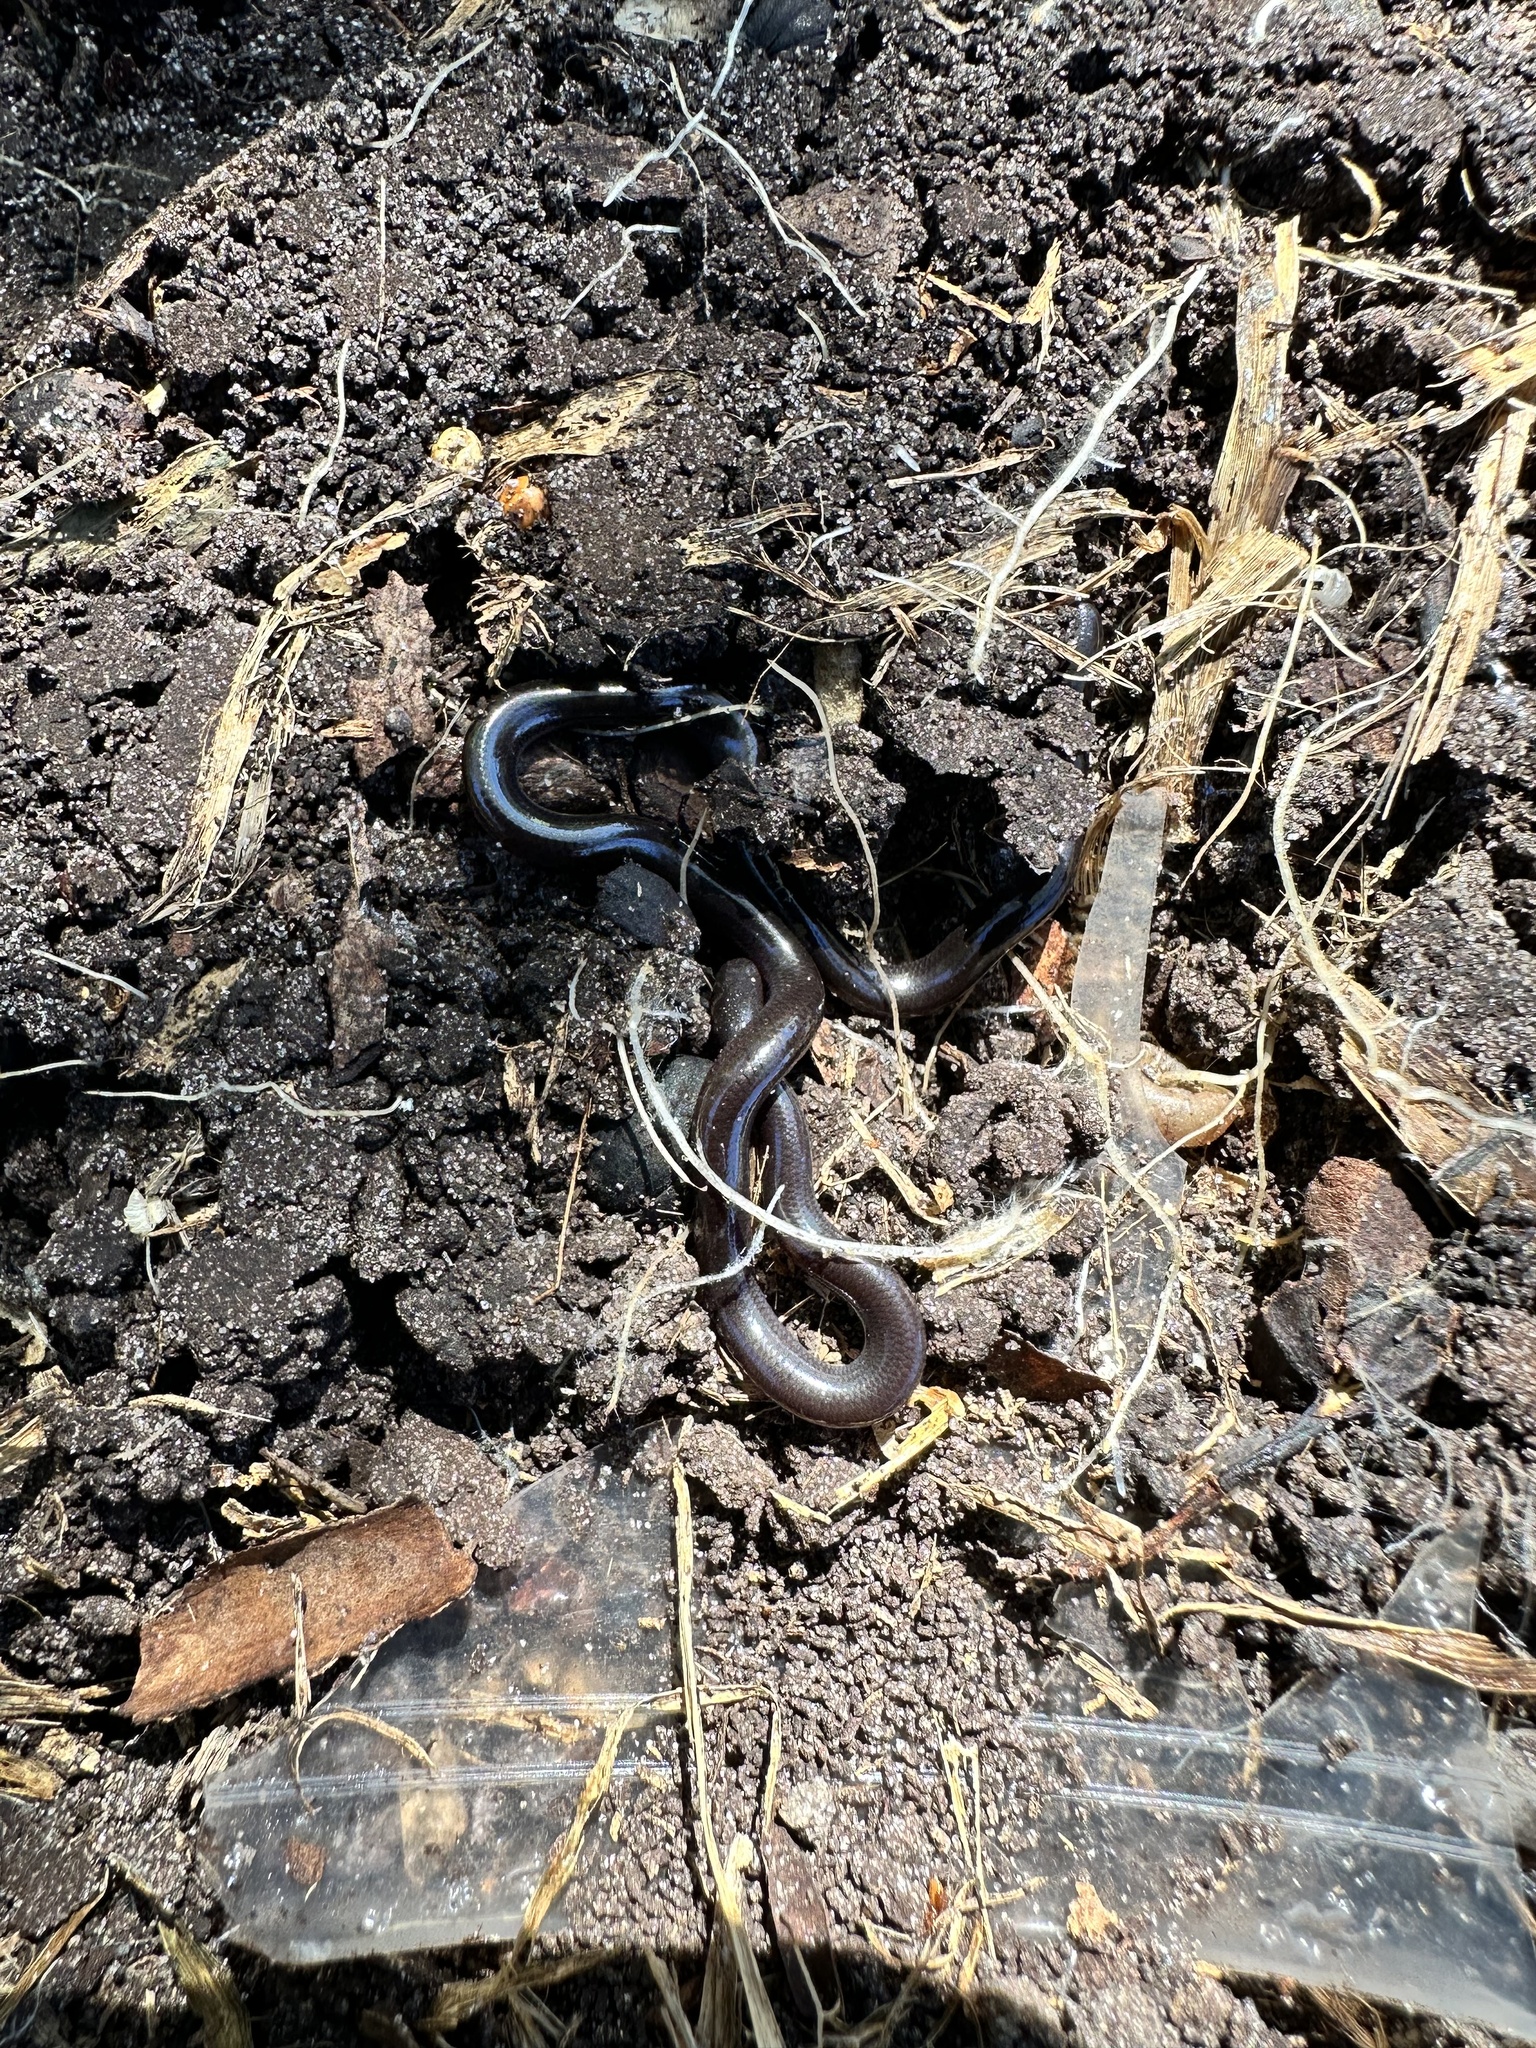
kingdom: Animalia
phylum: Chordata
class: Squamata
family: Typhlopidae
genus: Indotyphlops
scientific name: Indotyphlops braminus
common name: Brahminy blindsnake
